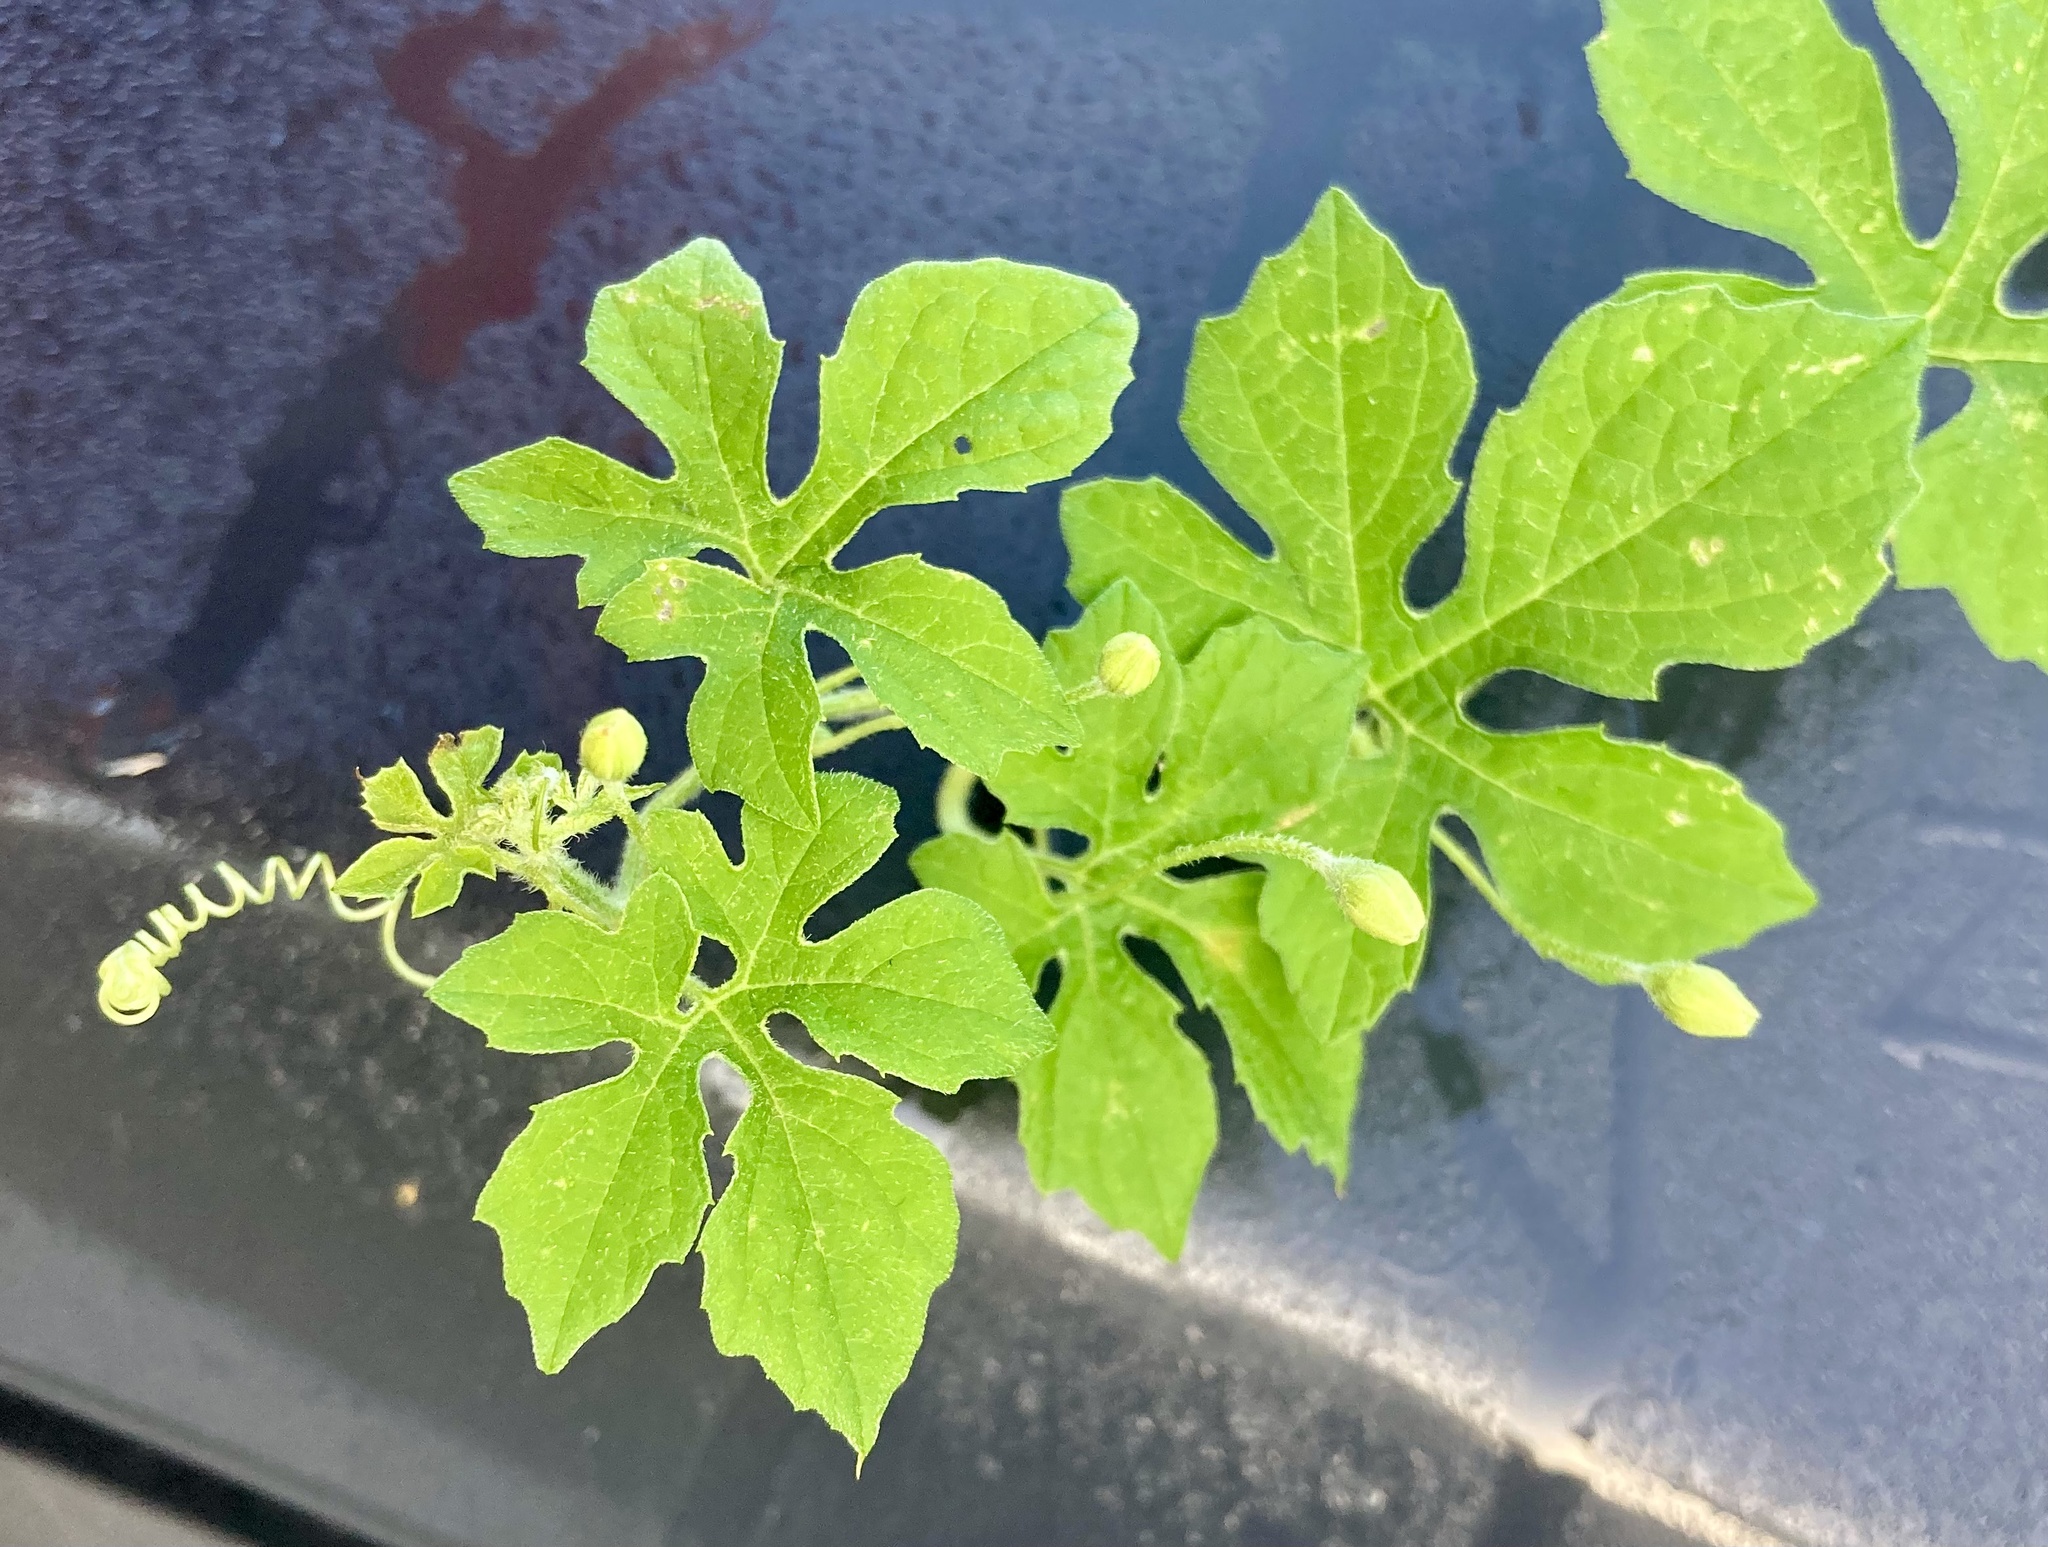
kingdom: Plantae
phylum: Tracheophyta
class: Magnoliopsida
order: Cucurbitales
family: Cucurbitaceae
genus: Momordica
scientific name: Momordica charantia
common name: Balsampear
